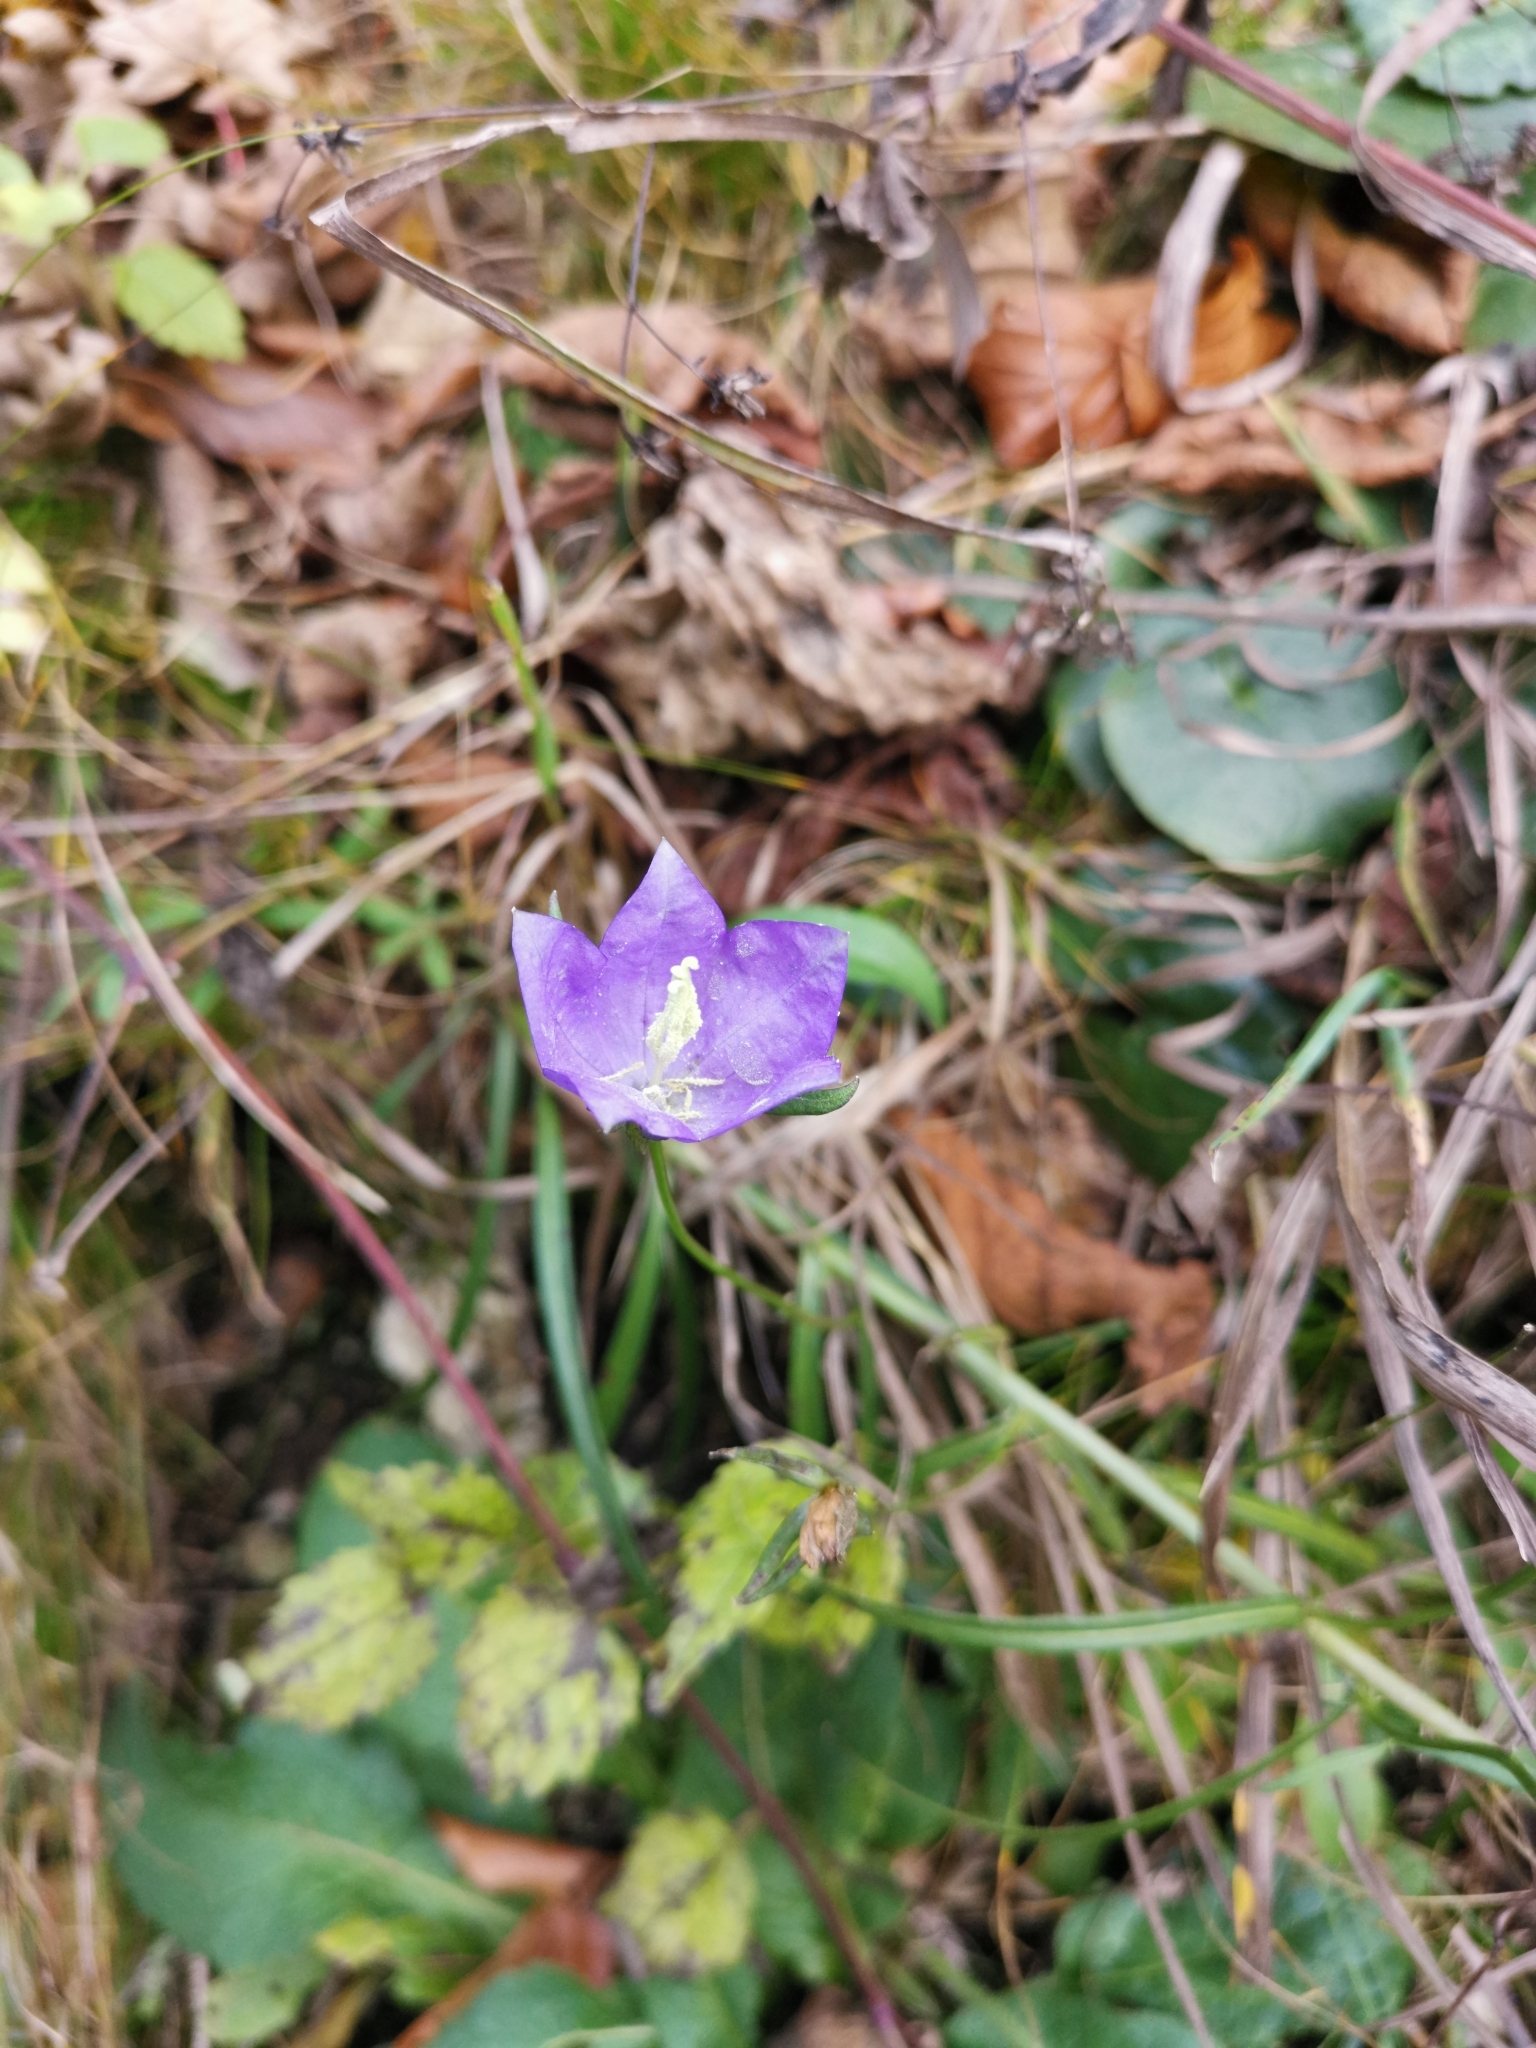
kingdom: Plantae
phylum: Tracheophyta
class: Magnoliopsida
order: Asterales
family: Campanulaceae
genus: Campanula
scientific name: Campanula persicifolia
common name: Peach-leaved bellflower
